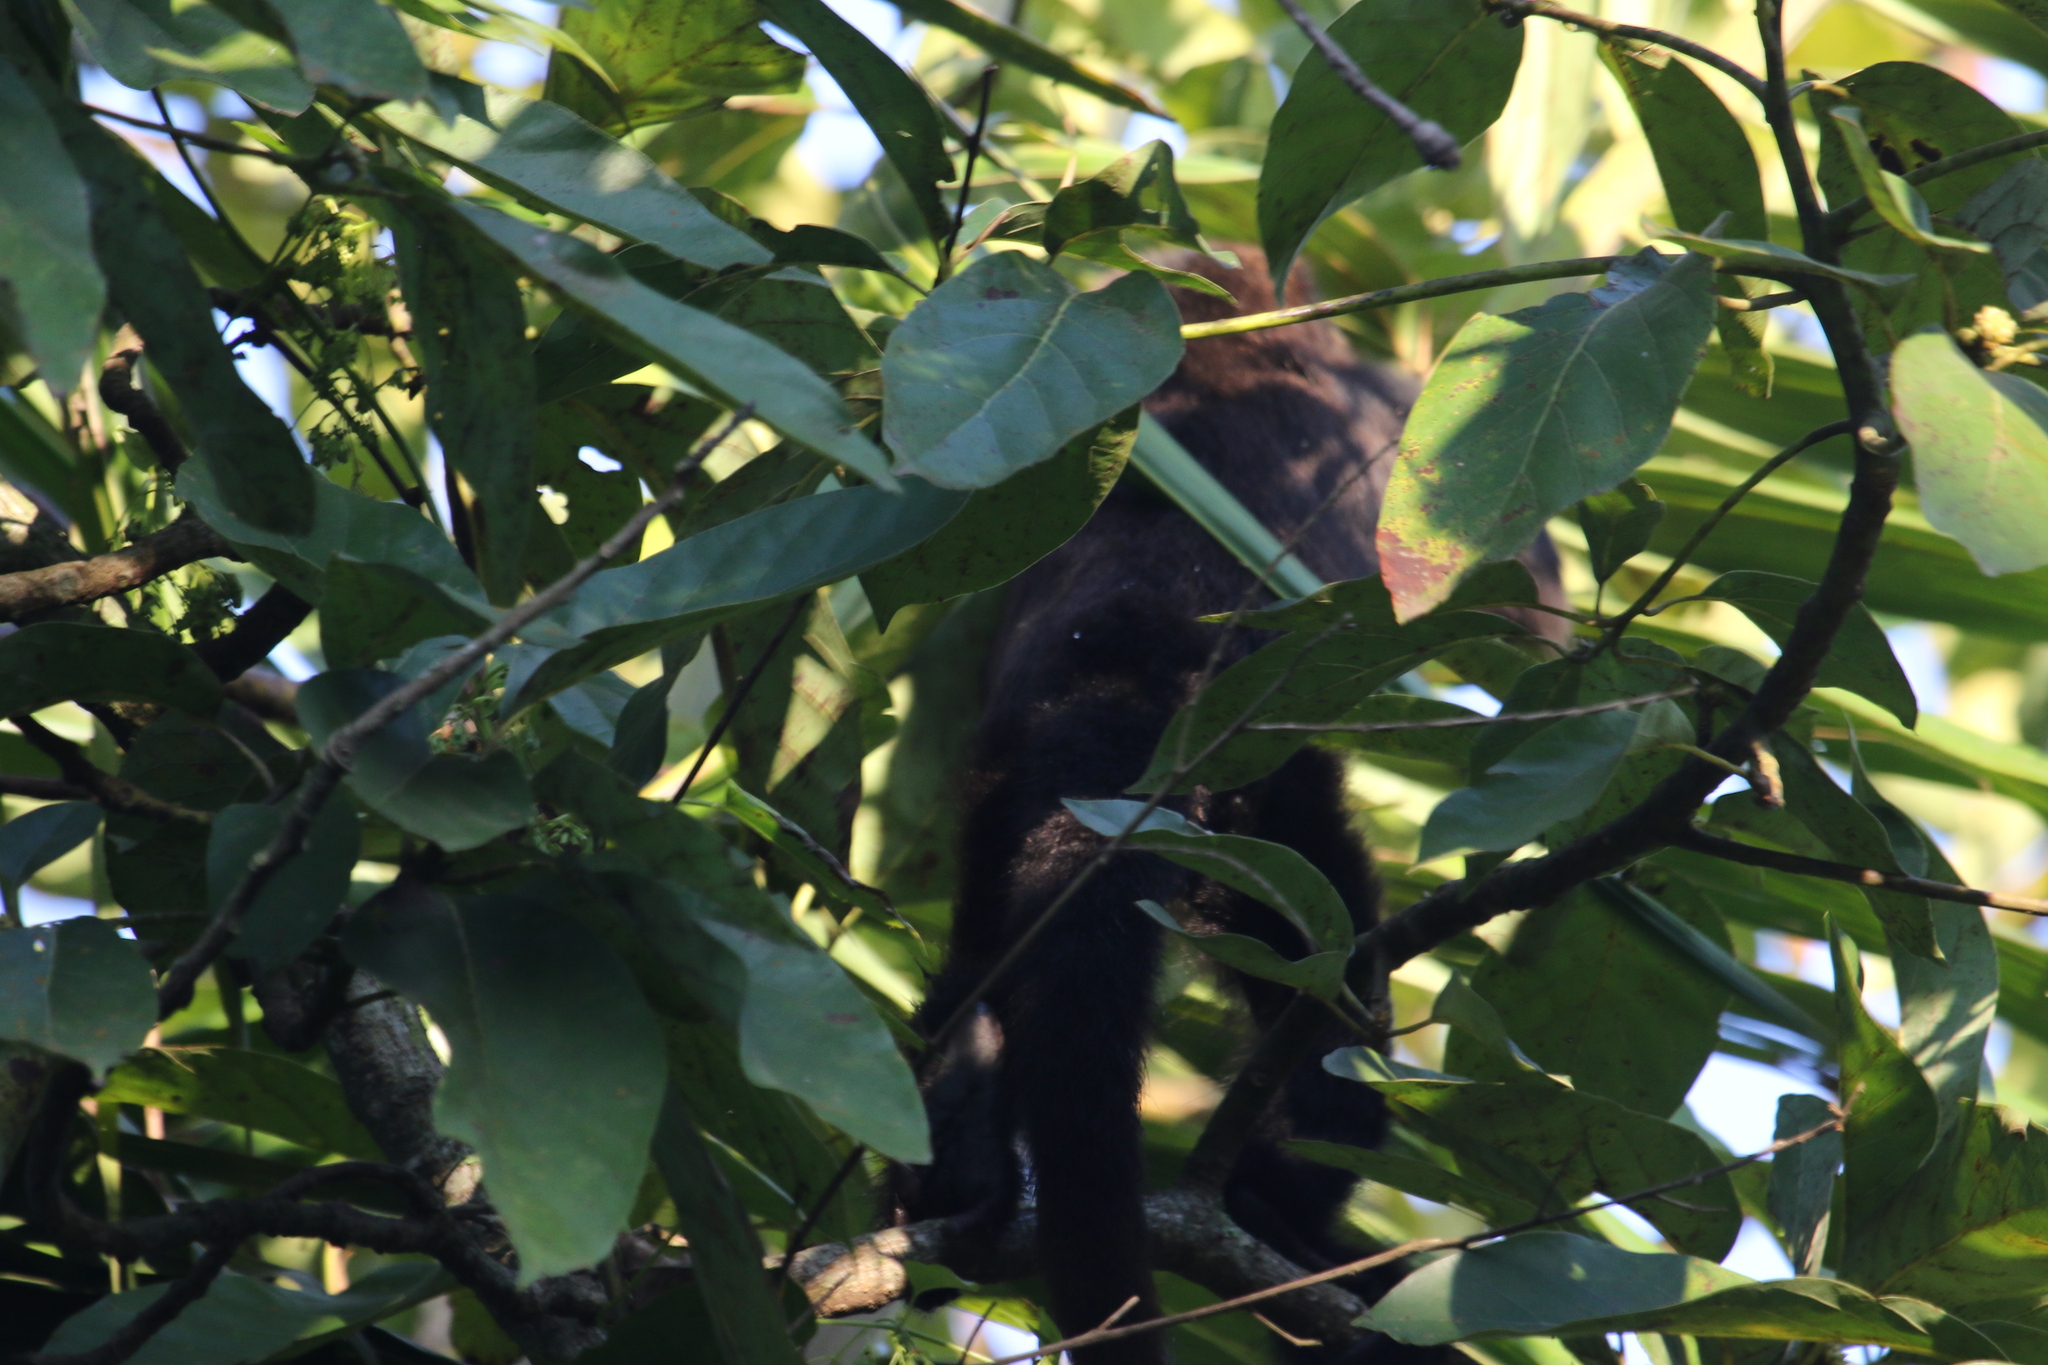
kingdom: Animalia
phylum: Chordata
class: Mammalia
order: Primates
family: Atelidae
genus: Alouatta
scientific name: Alouatta guariba
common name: Brown howler monkey
